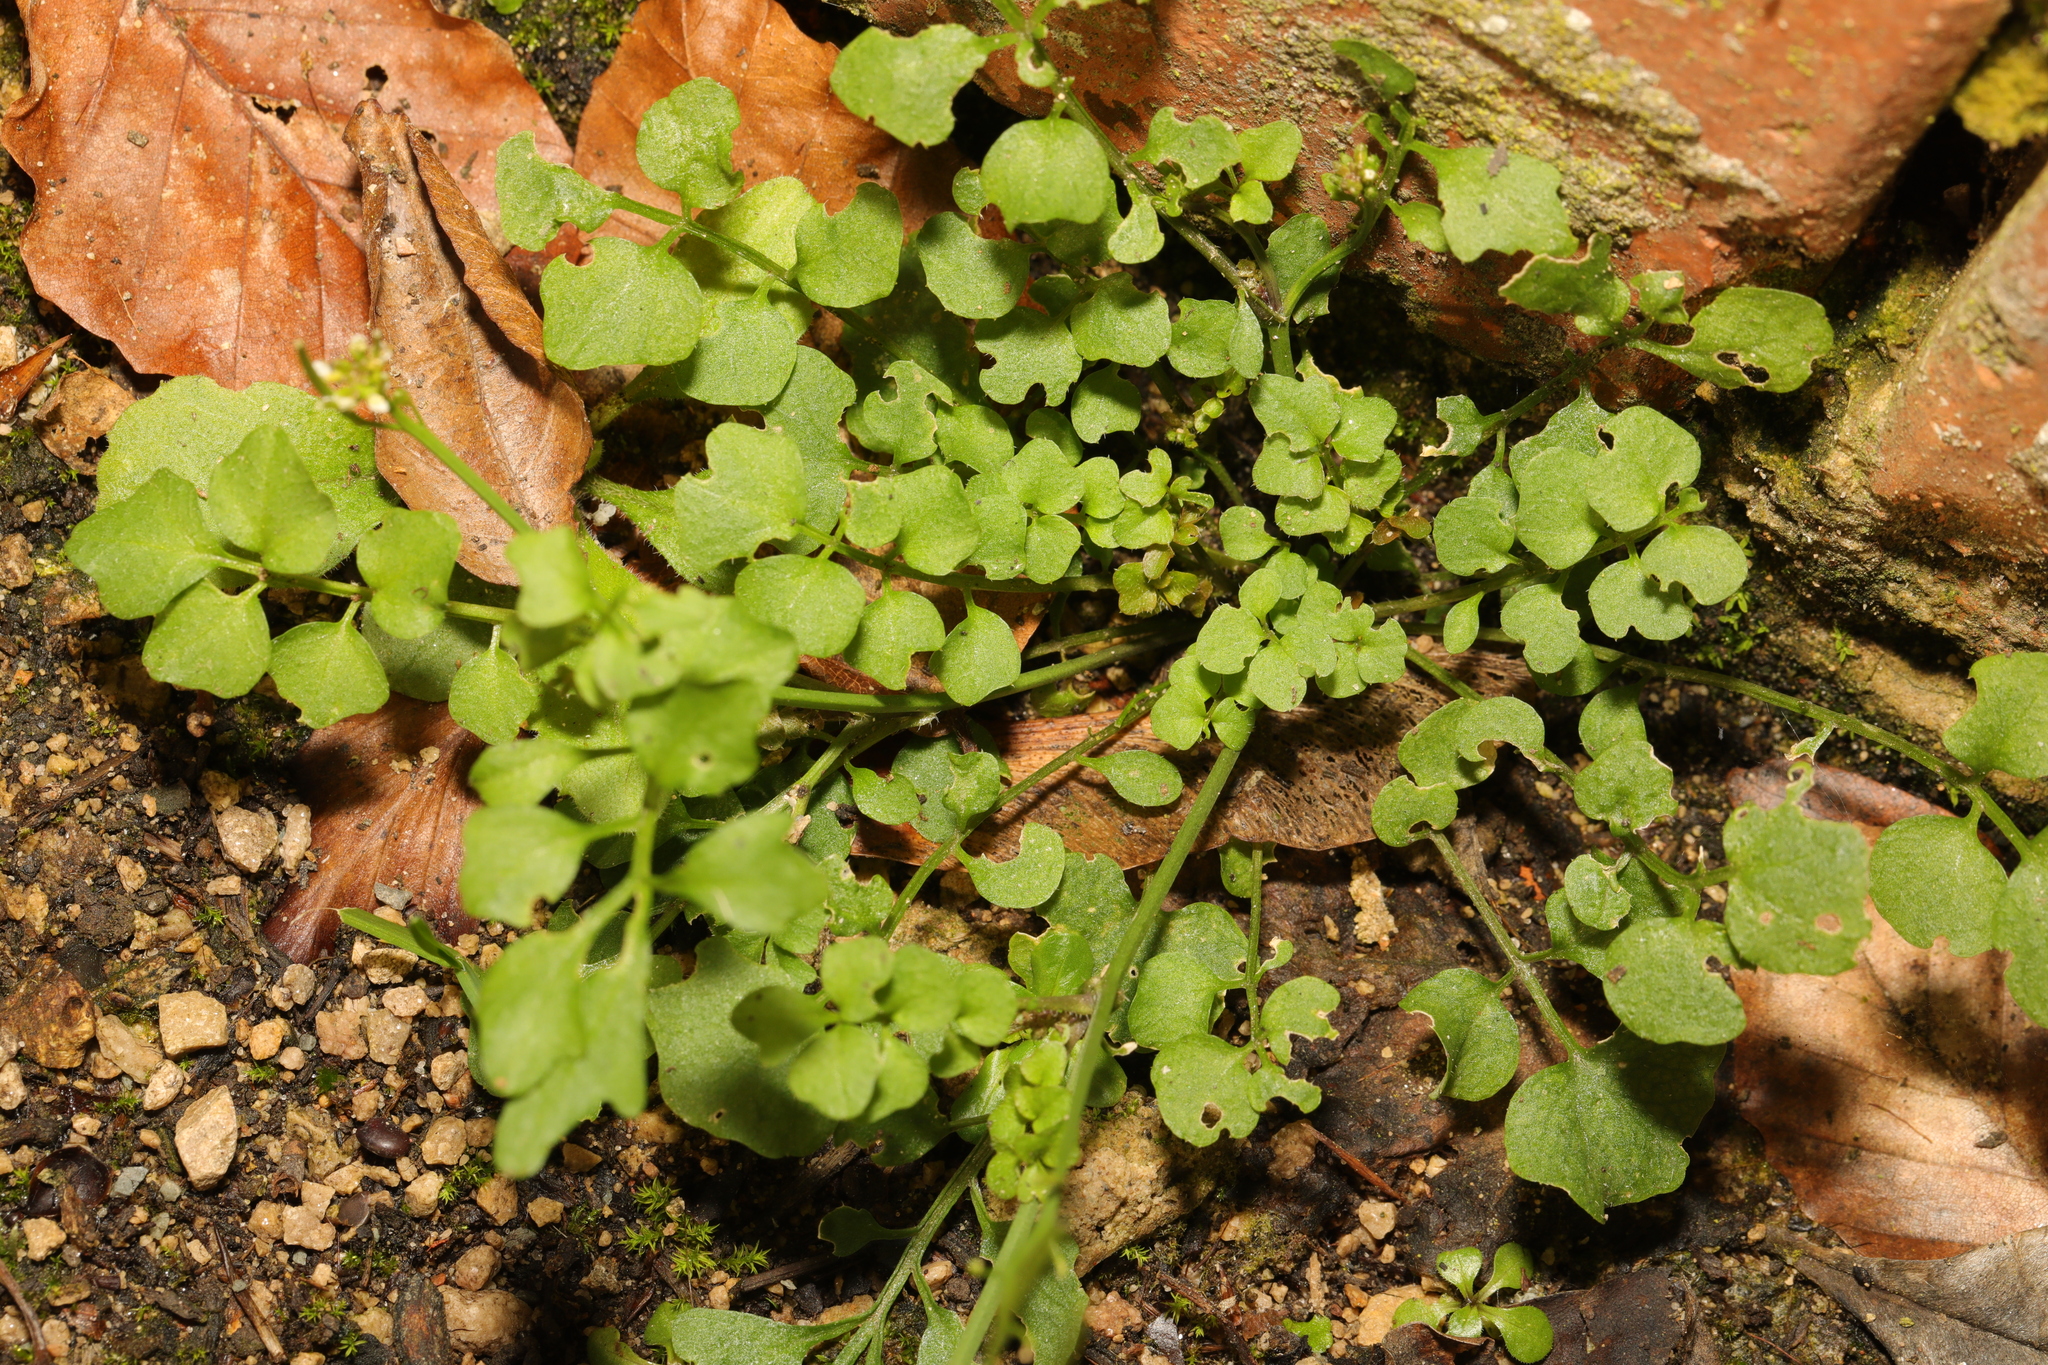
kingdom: Plantae
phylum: Tracheophyta
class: Magnoliopsida
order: Brassicales
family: Brassicaceae
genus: Cardamine
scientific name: Cardamine hirsuta
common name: Hairy bittercress
